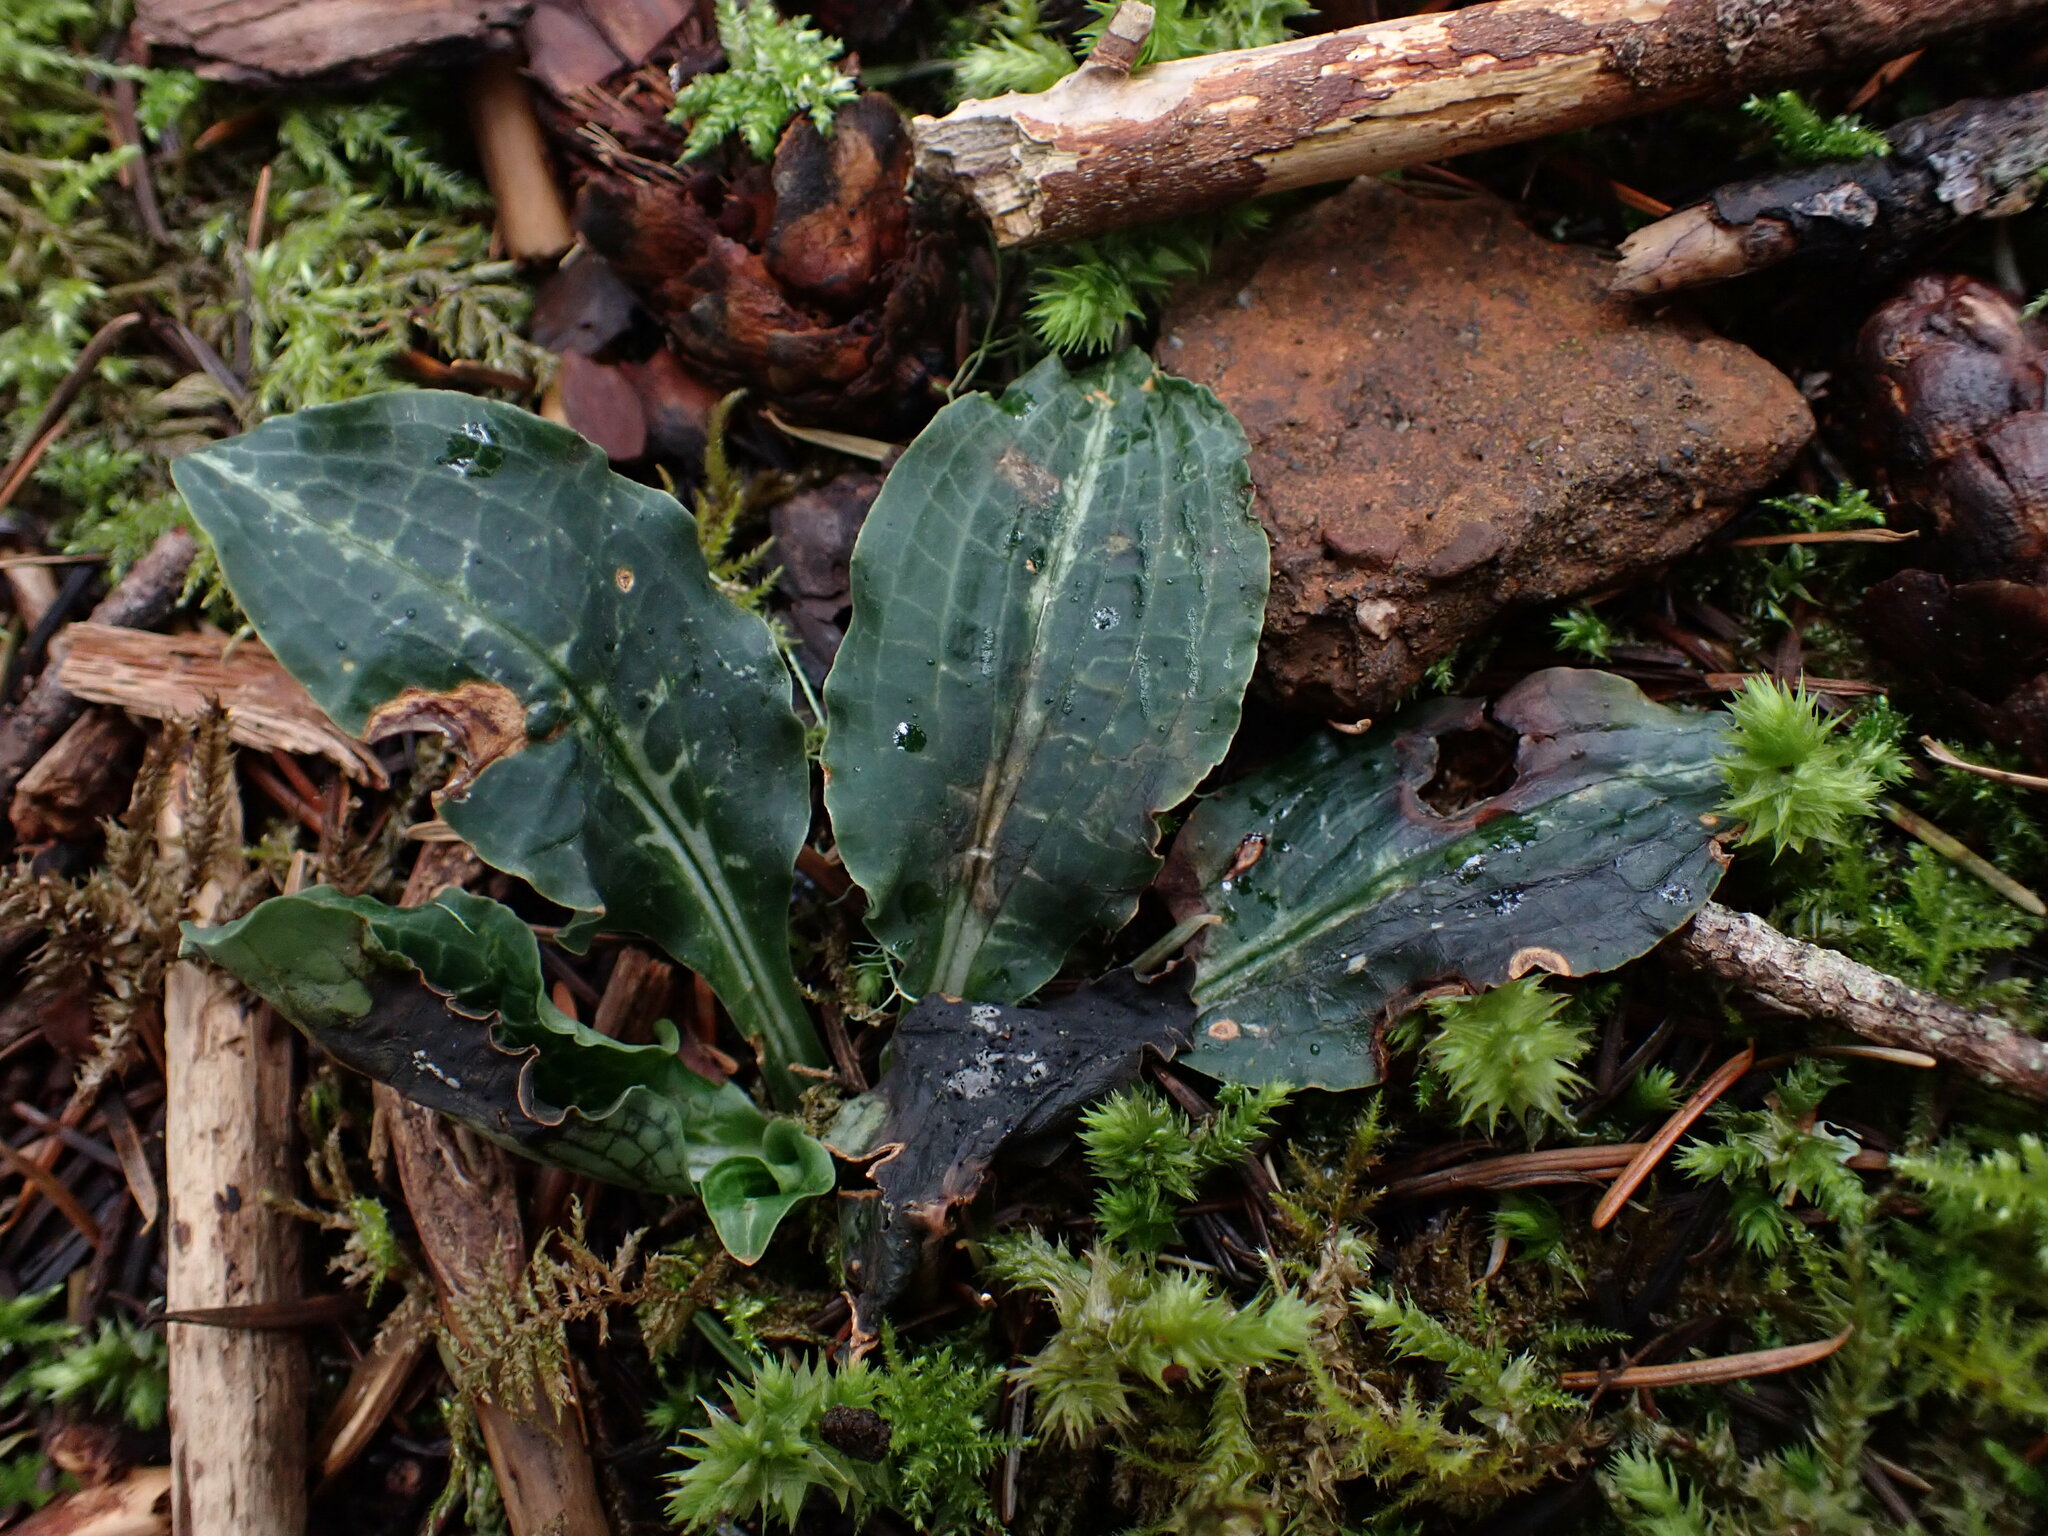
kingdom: Plantae
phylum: Tracheophyta
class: Liliopsida
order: Asparagales
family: Orchidaceae
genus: Goodyera
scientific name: Goodyera oblongifolia
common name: Giant rattlesnake-plantain
